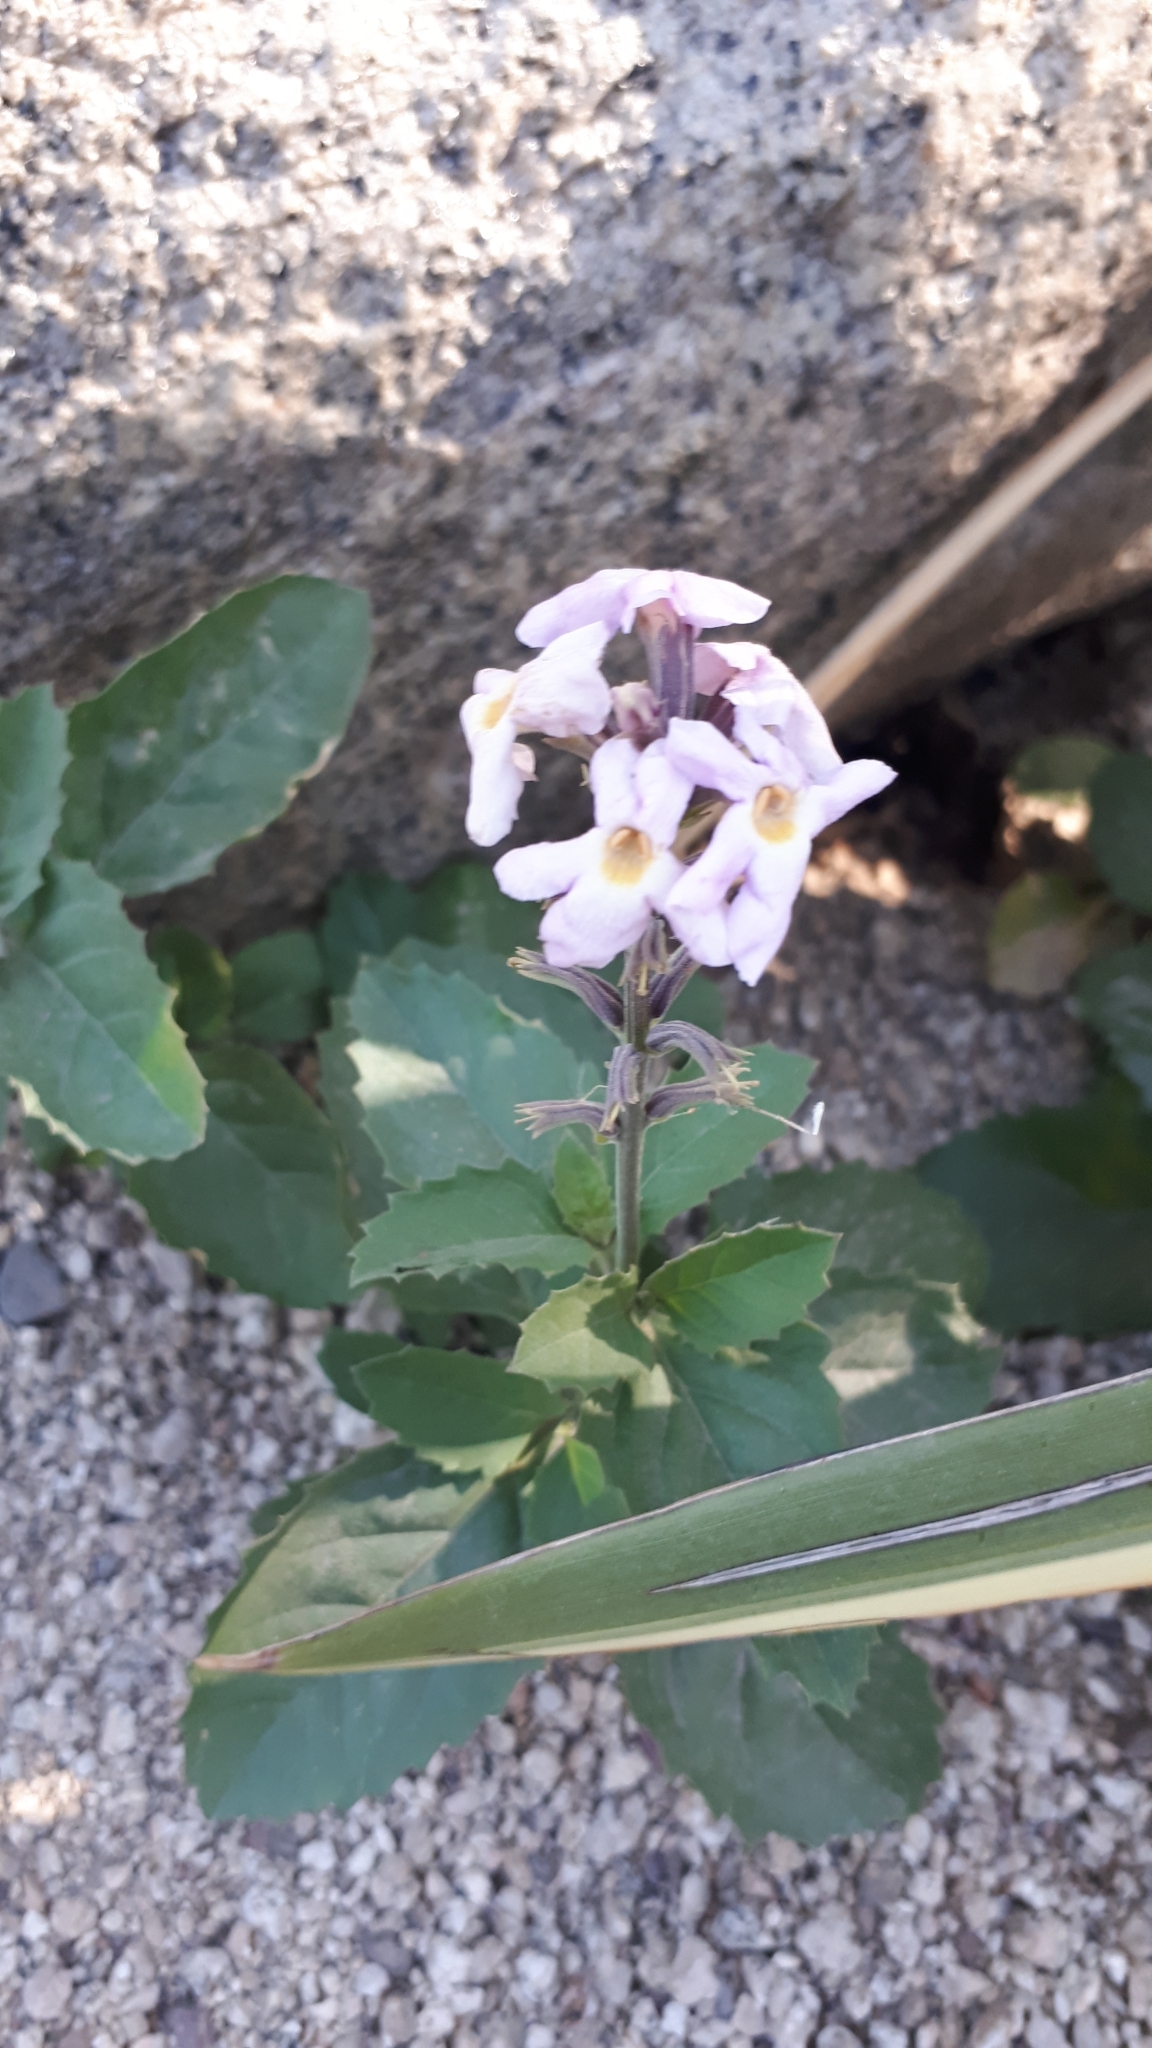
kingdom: Plantae
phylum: Tracheophyta
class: Magnoliopsida
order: Lamiales
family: Verbenaceae
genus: Pitraea
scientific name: Pitraea cuneato-ovata
